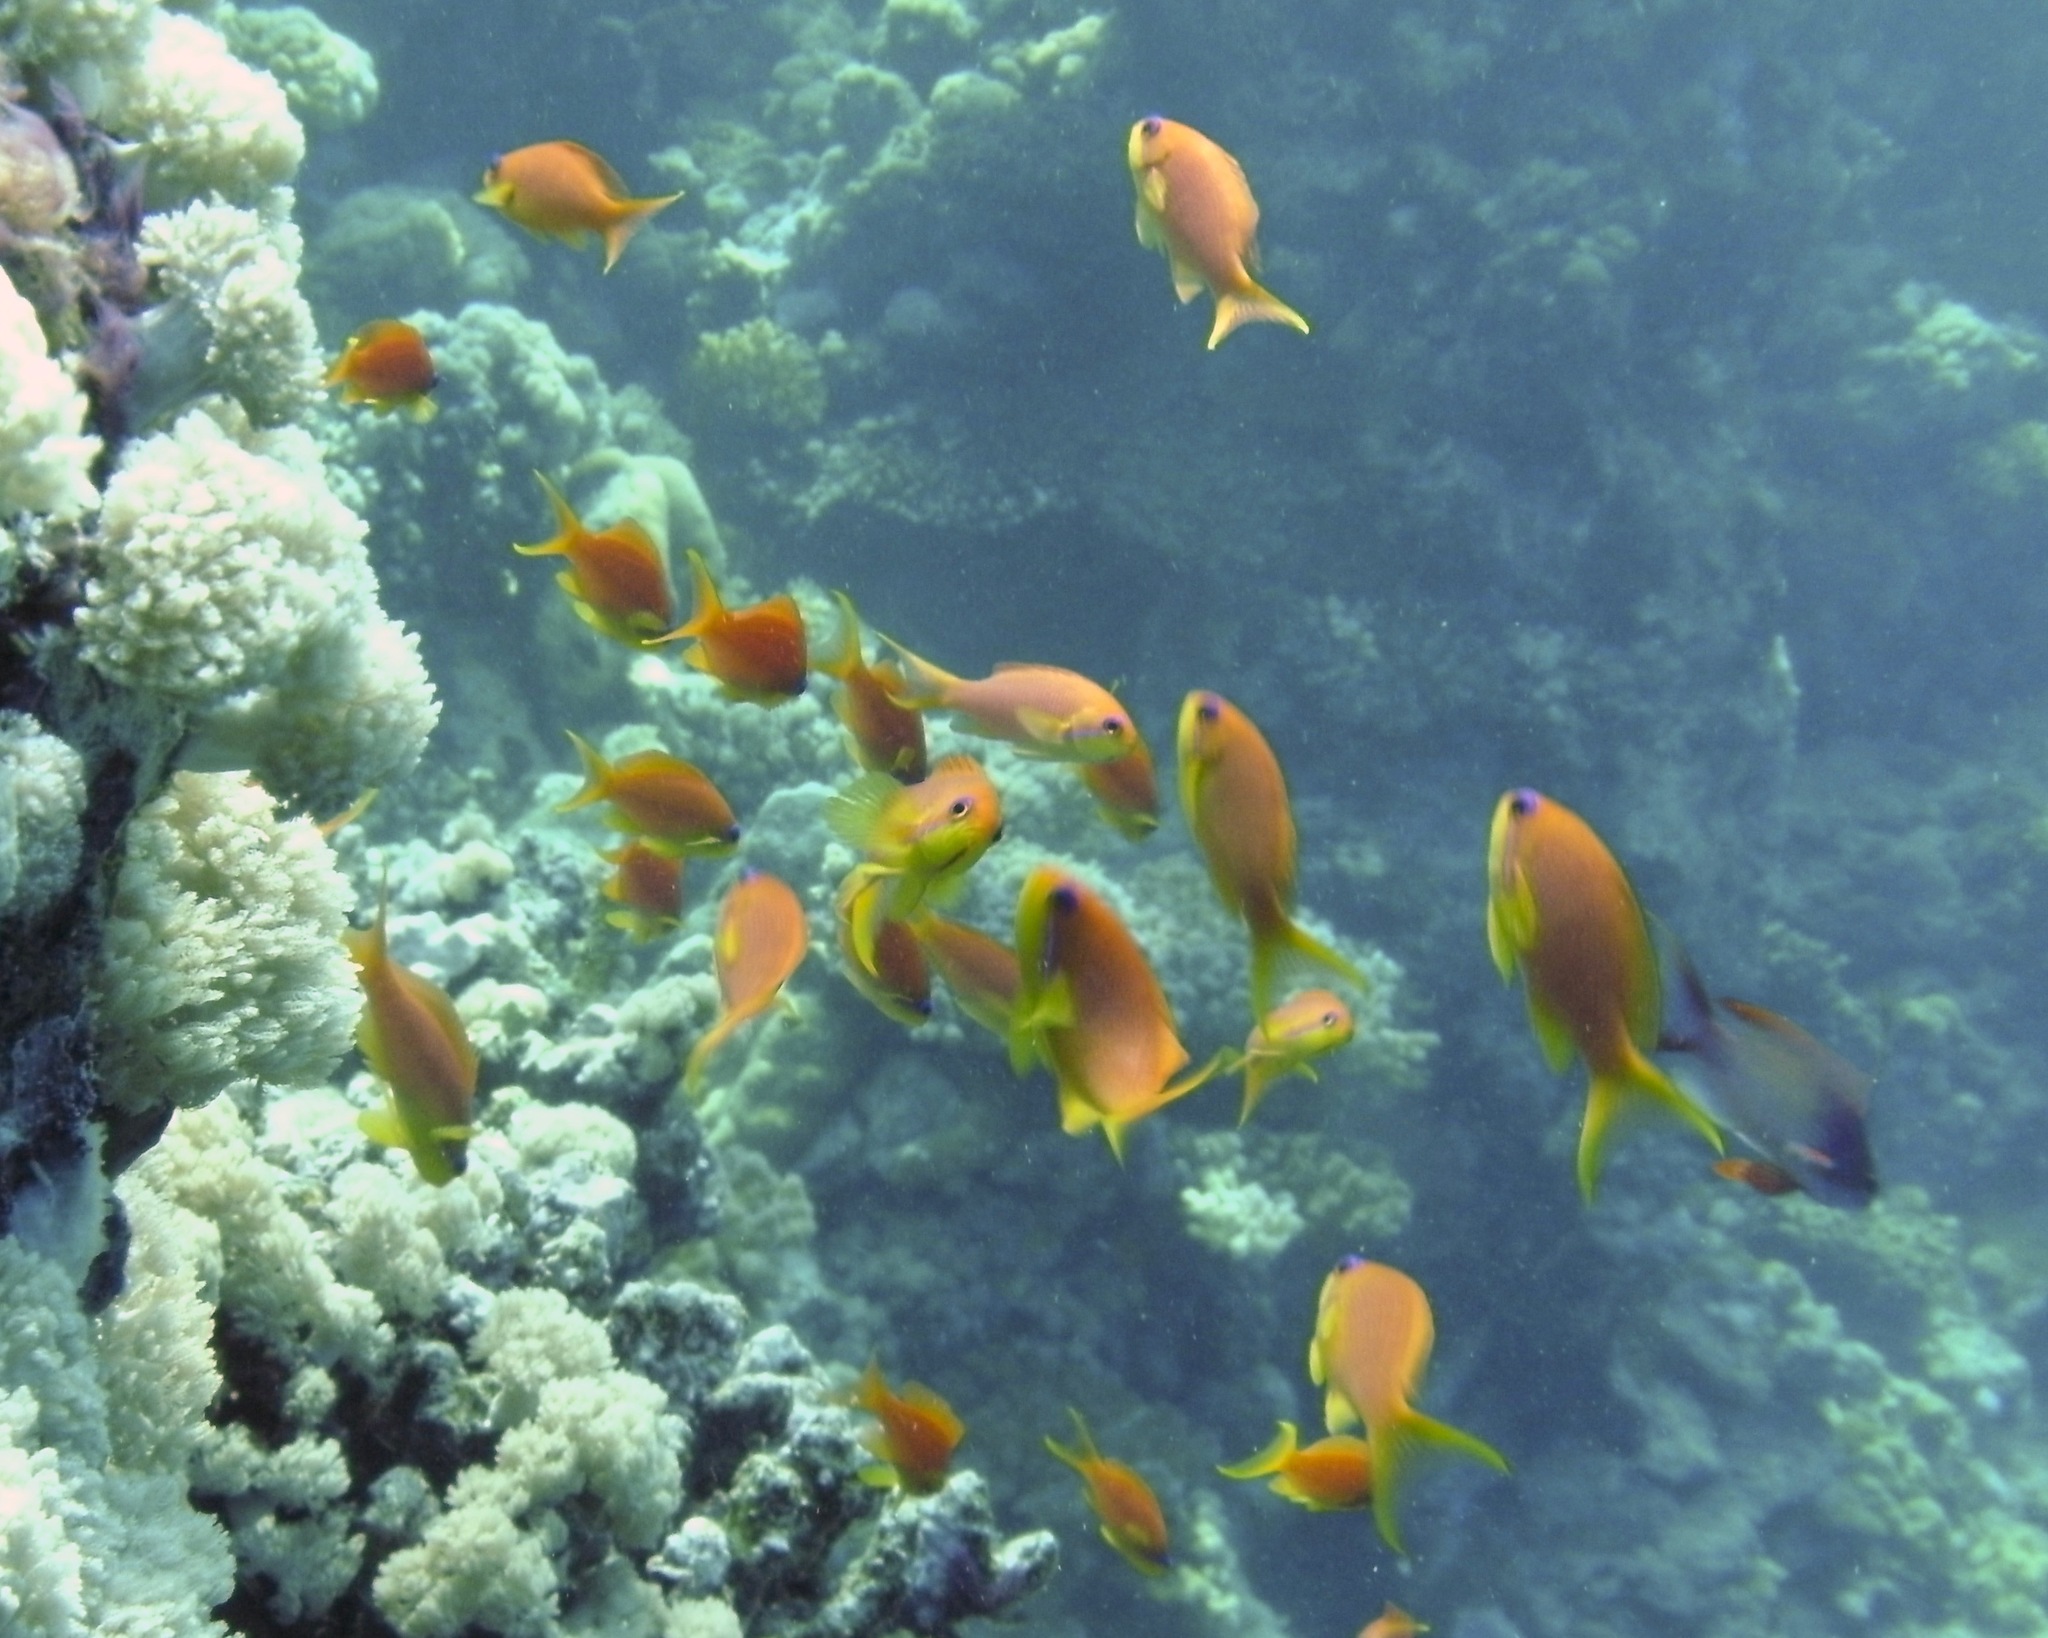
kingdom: Animalia
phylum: Chordata
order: Perciformes
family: Serranidae
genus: Pseudanthias
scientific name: Pseudanthias squamipinnis
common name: Scalefin anthias
